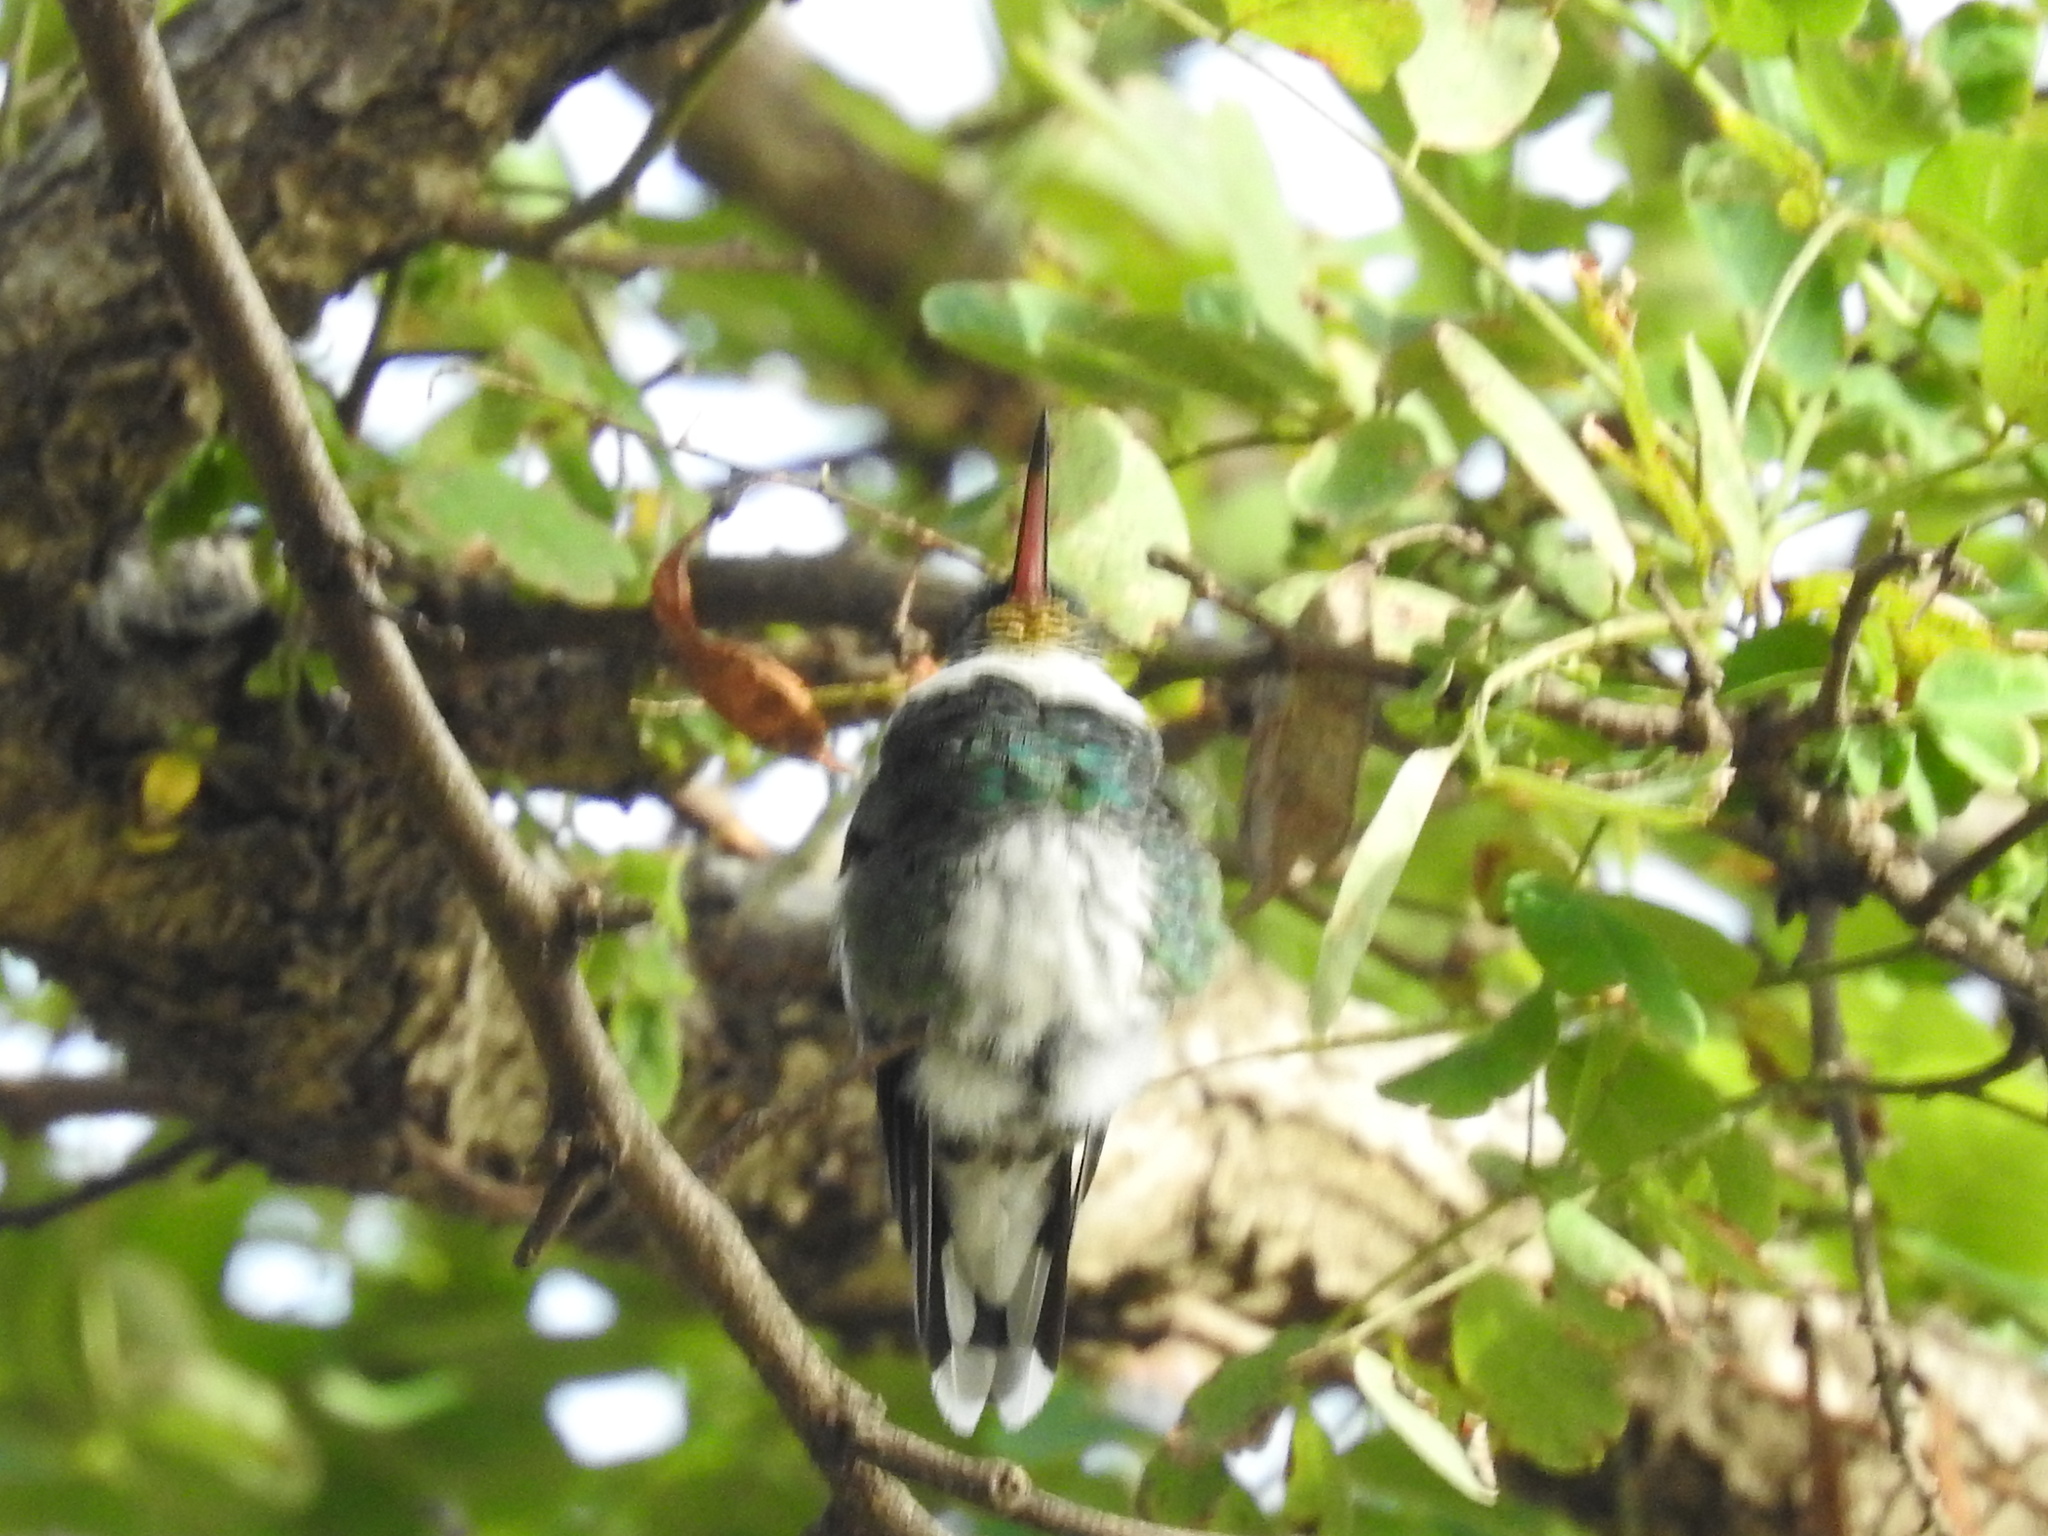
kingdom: Animalia
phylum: Chordata
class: Aves
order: Apodiformes
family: Trochilidae
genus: Leucochloris
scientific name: Leucochloris albicollis
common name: White-throated hummingbird
